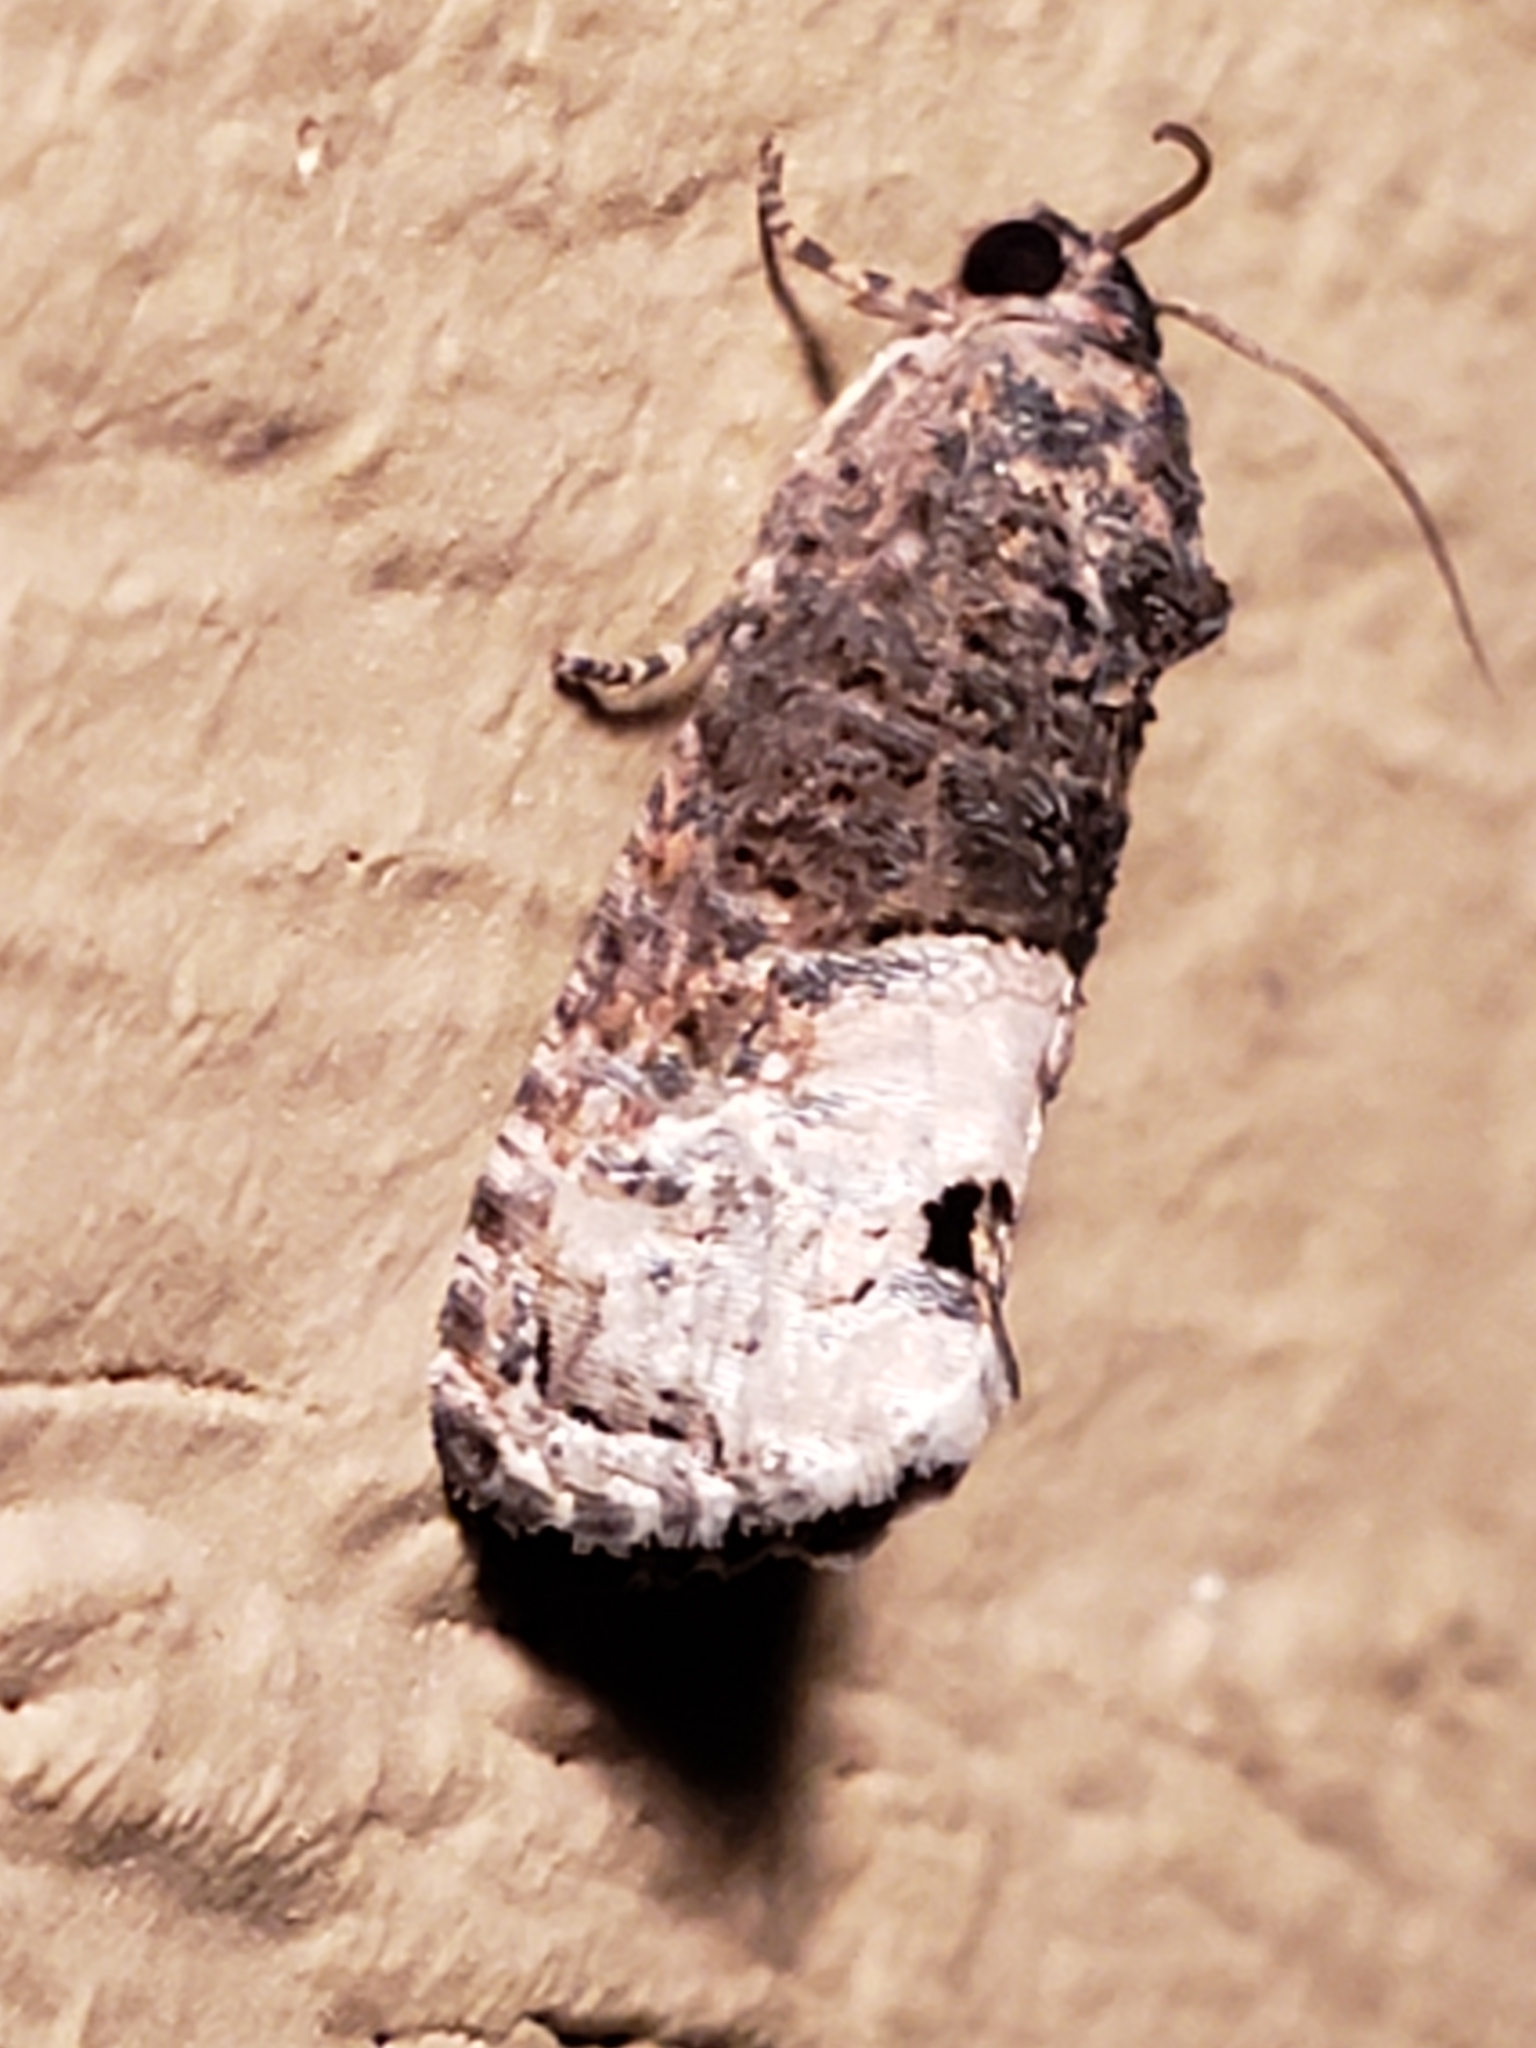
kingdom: Animalia
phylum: Arthropoda
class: Insecta
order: Lepidoptera
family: Tortricidae
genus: Ecdytolopha
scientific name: Ecdytolopha insiticiana
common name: Locust twig borer moth
